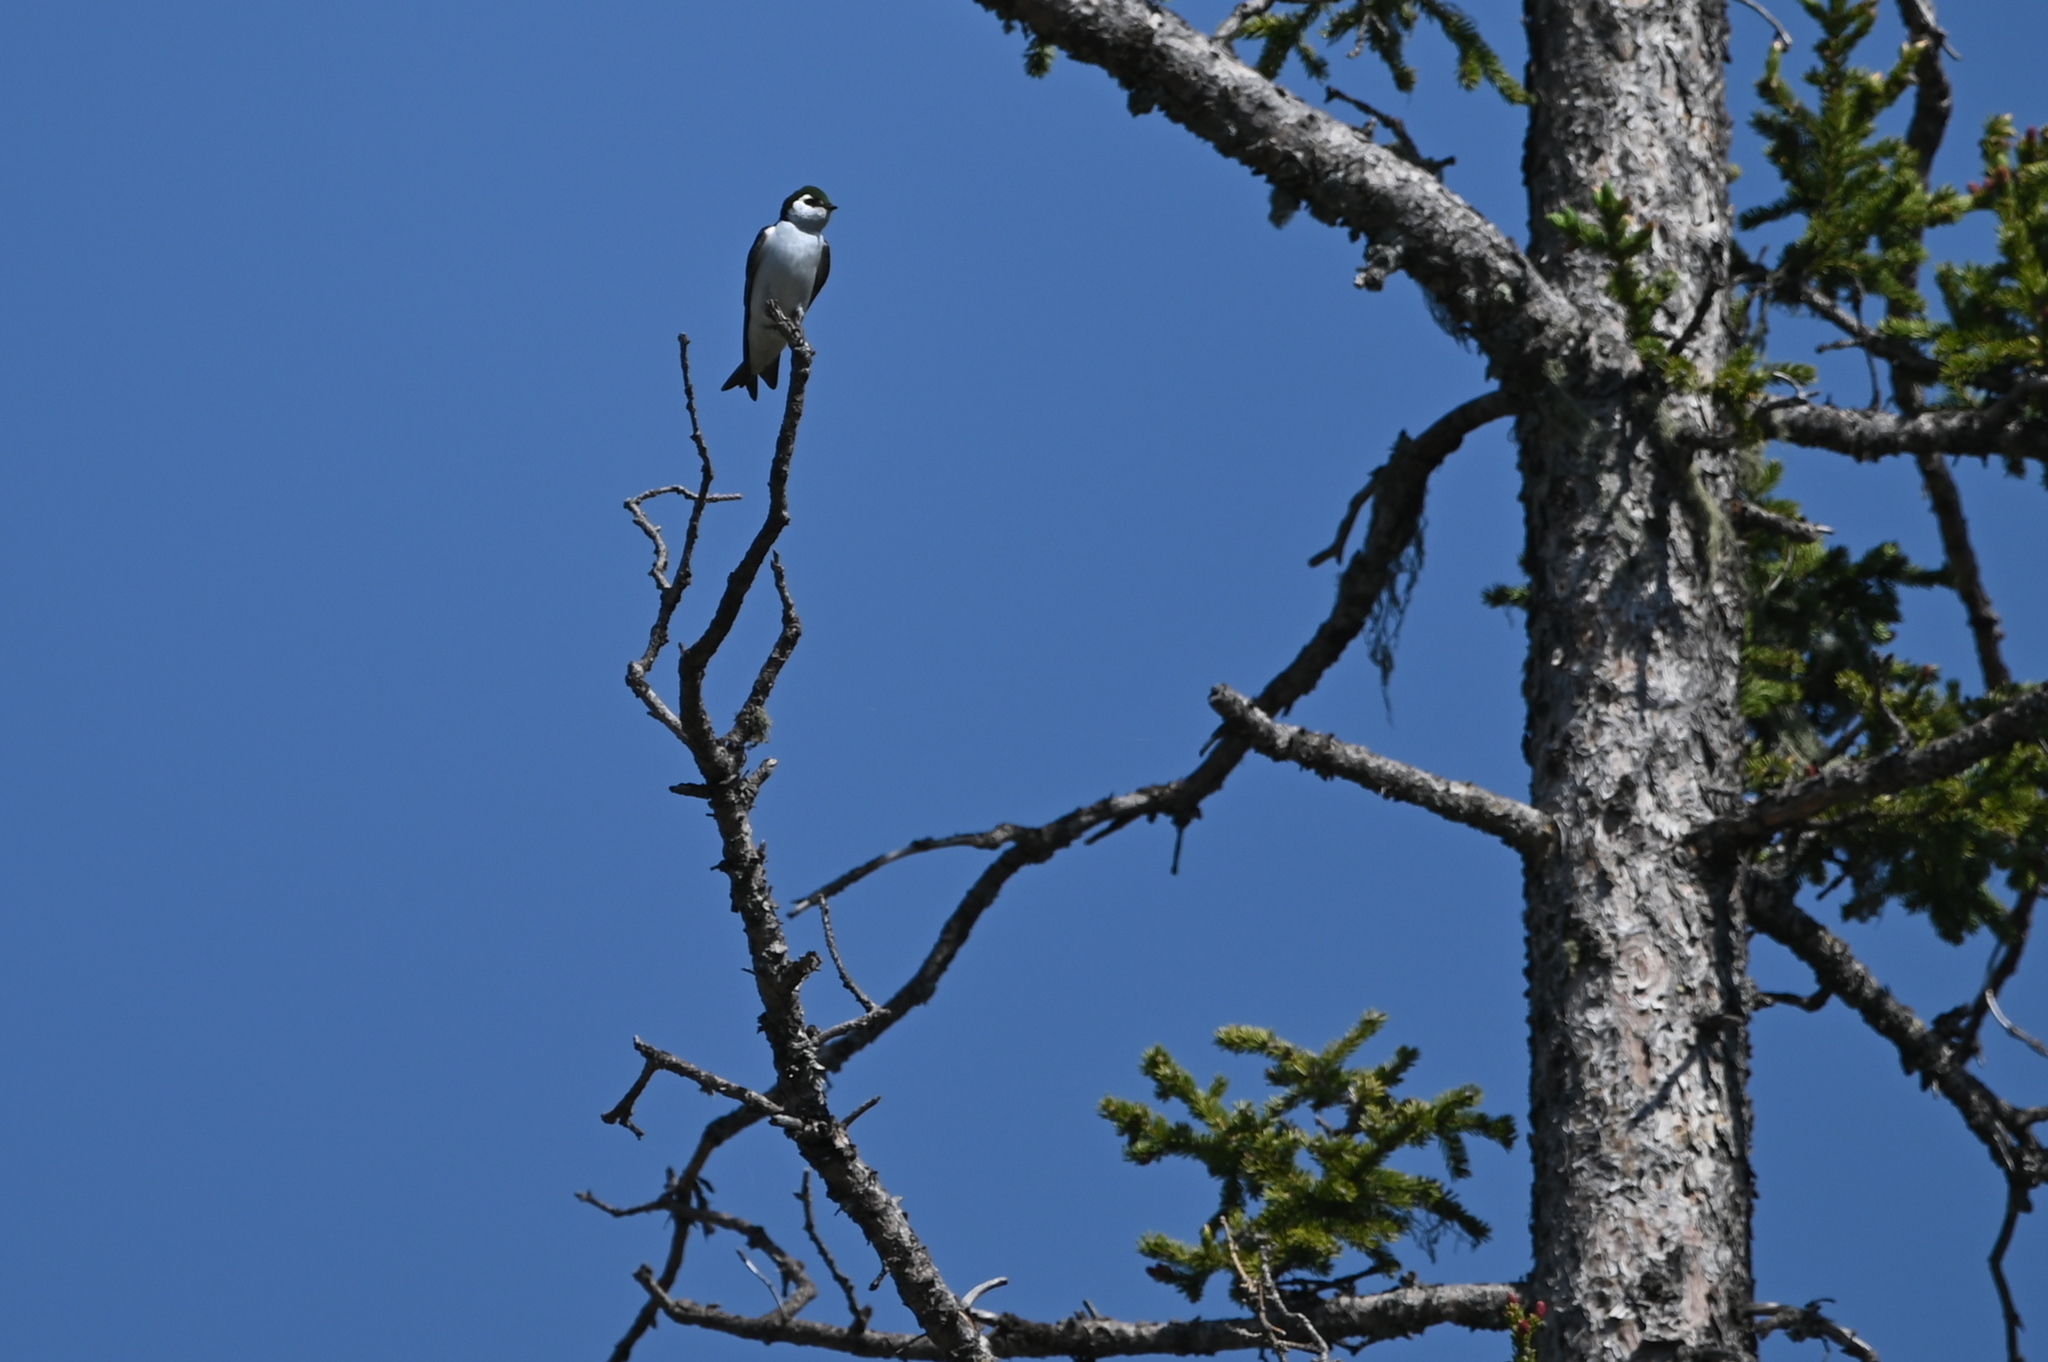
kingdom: Animalia
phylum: Chordata
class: Aves
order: Passeriformes
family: Hirundinidae
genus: Tachycineta
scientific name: Tachycineta thalassina
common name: Violet-green swallow
